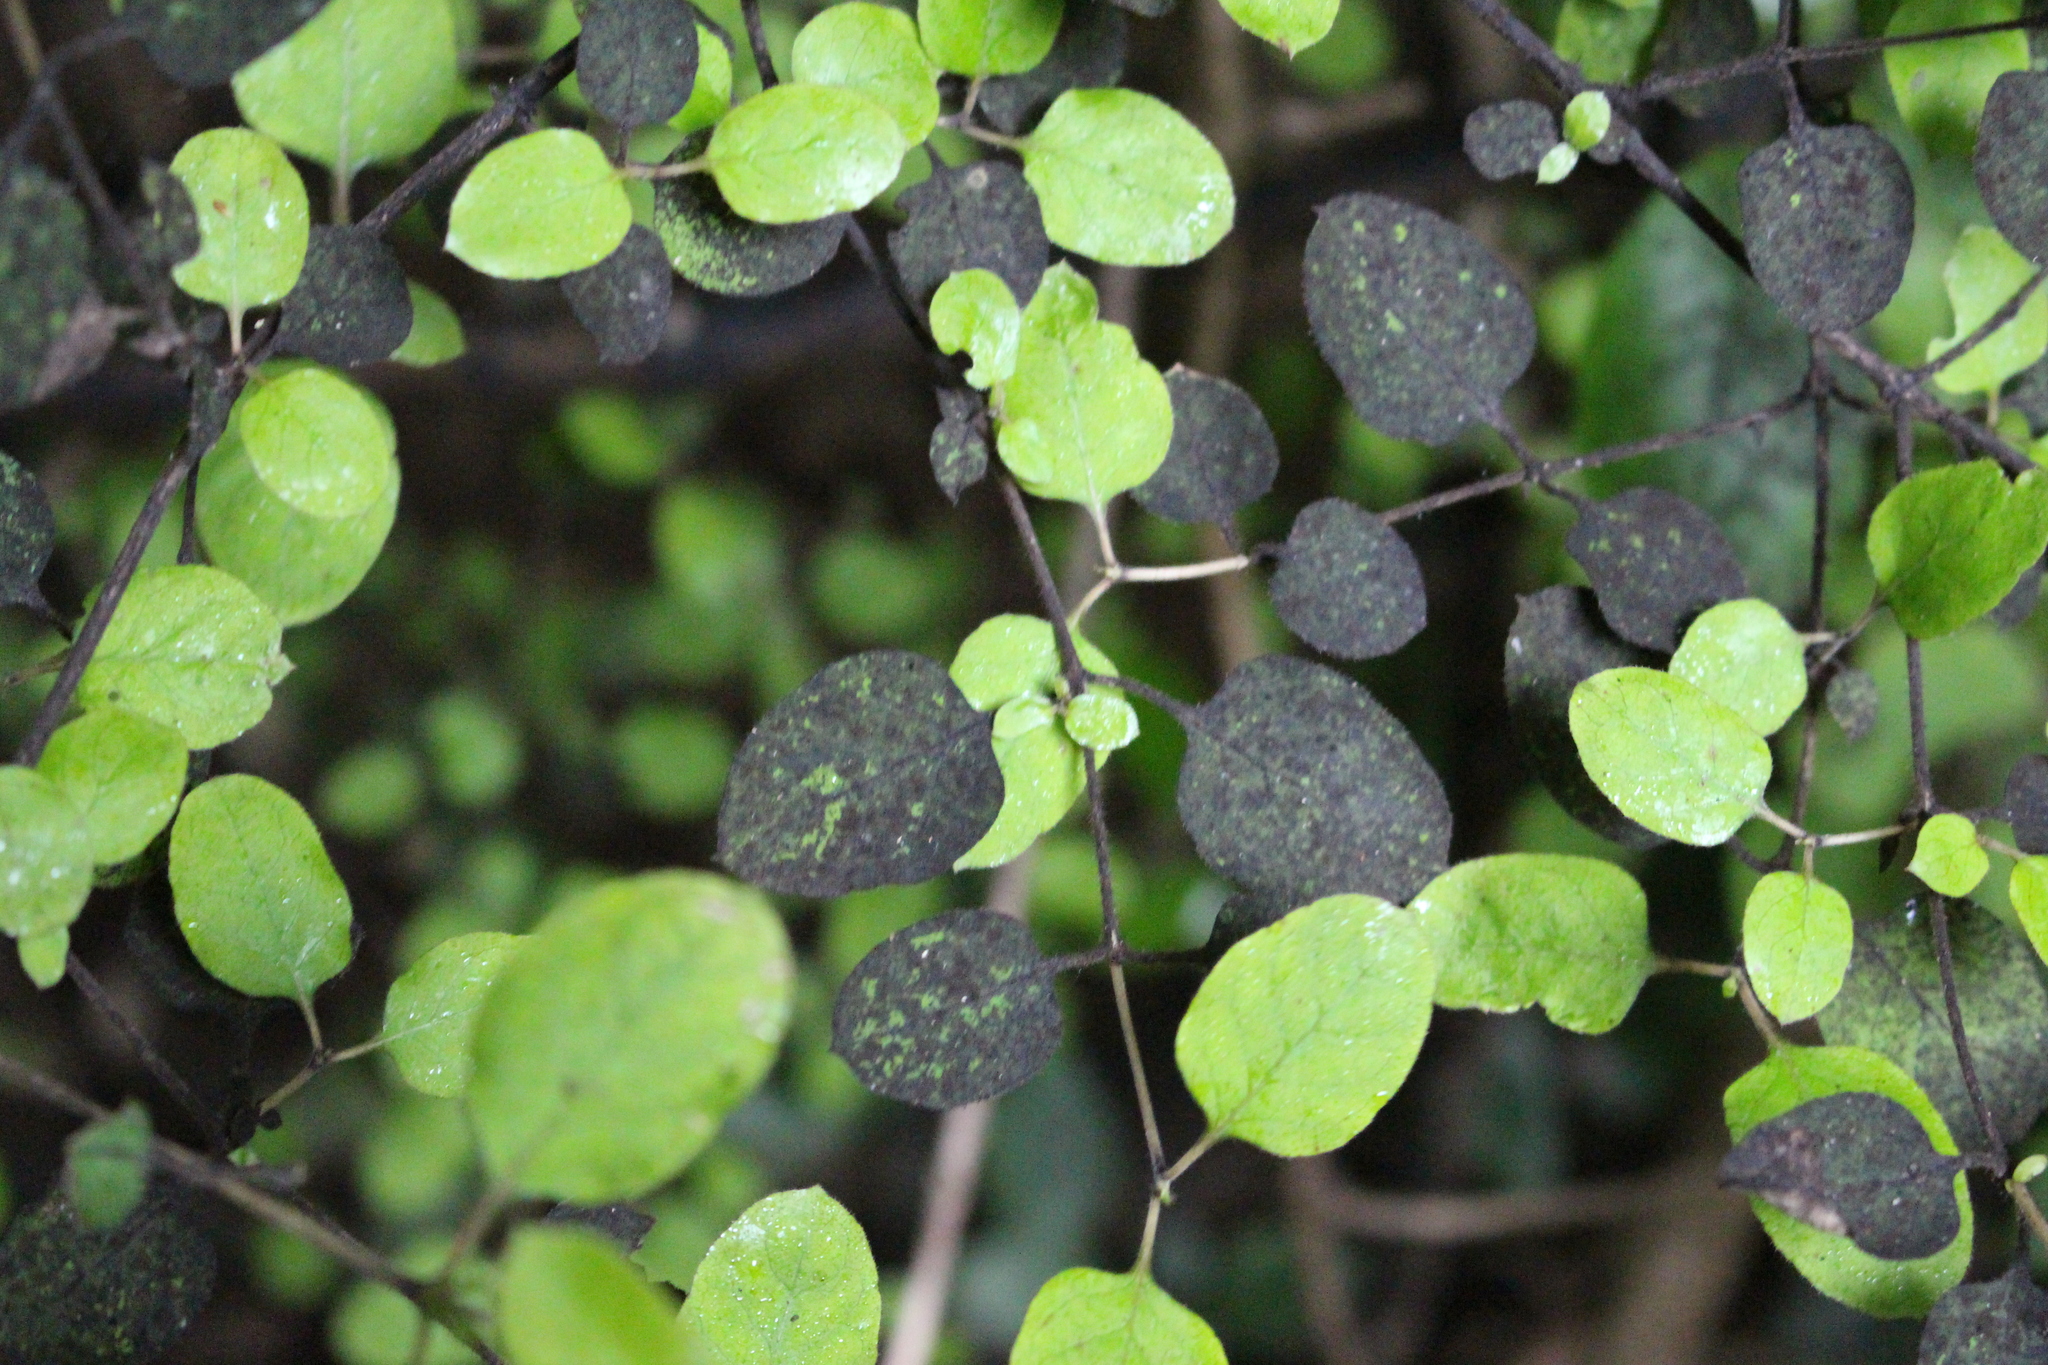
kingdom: Plantae
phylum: Tracheophyta
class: Magnoliopsida
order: Gentianales
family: Rubiaceae
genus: Coprosma
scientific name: Coprosma rotundifolia
